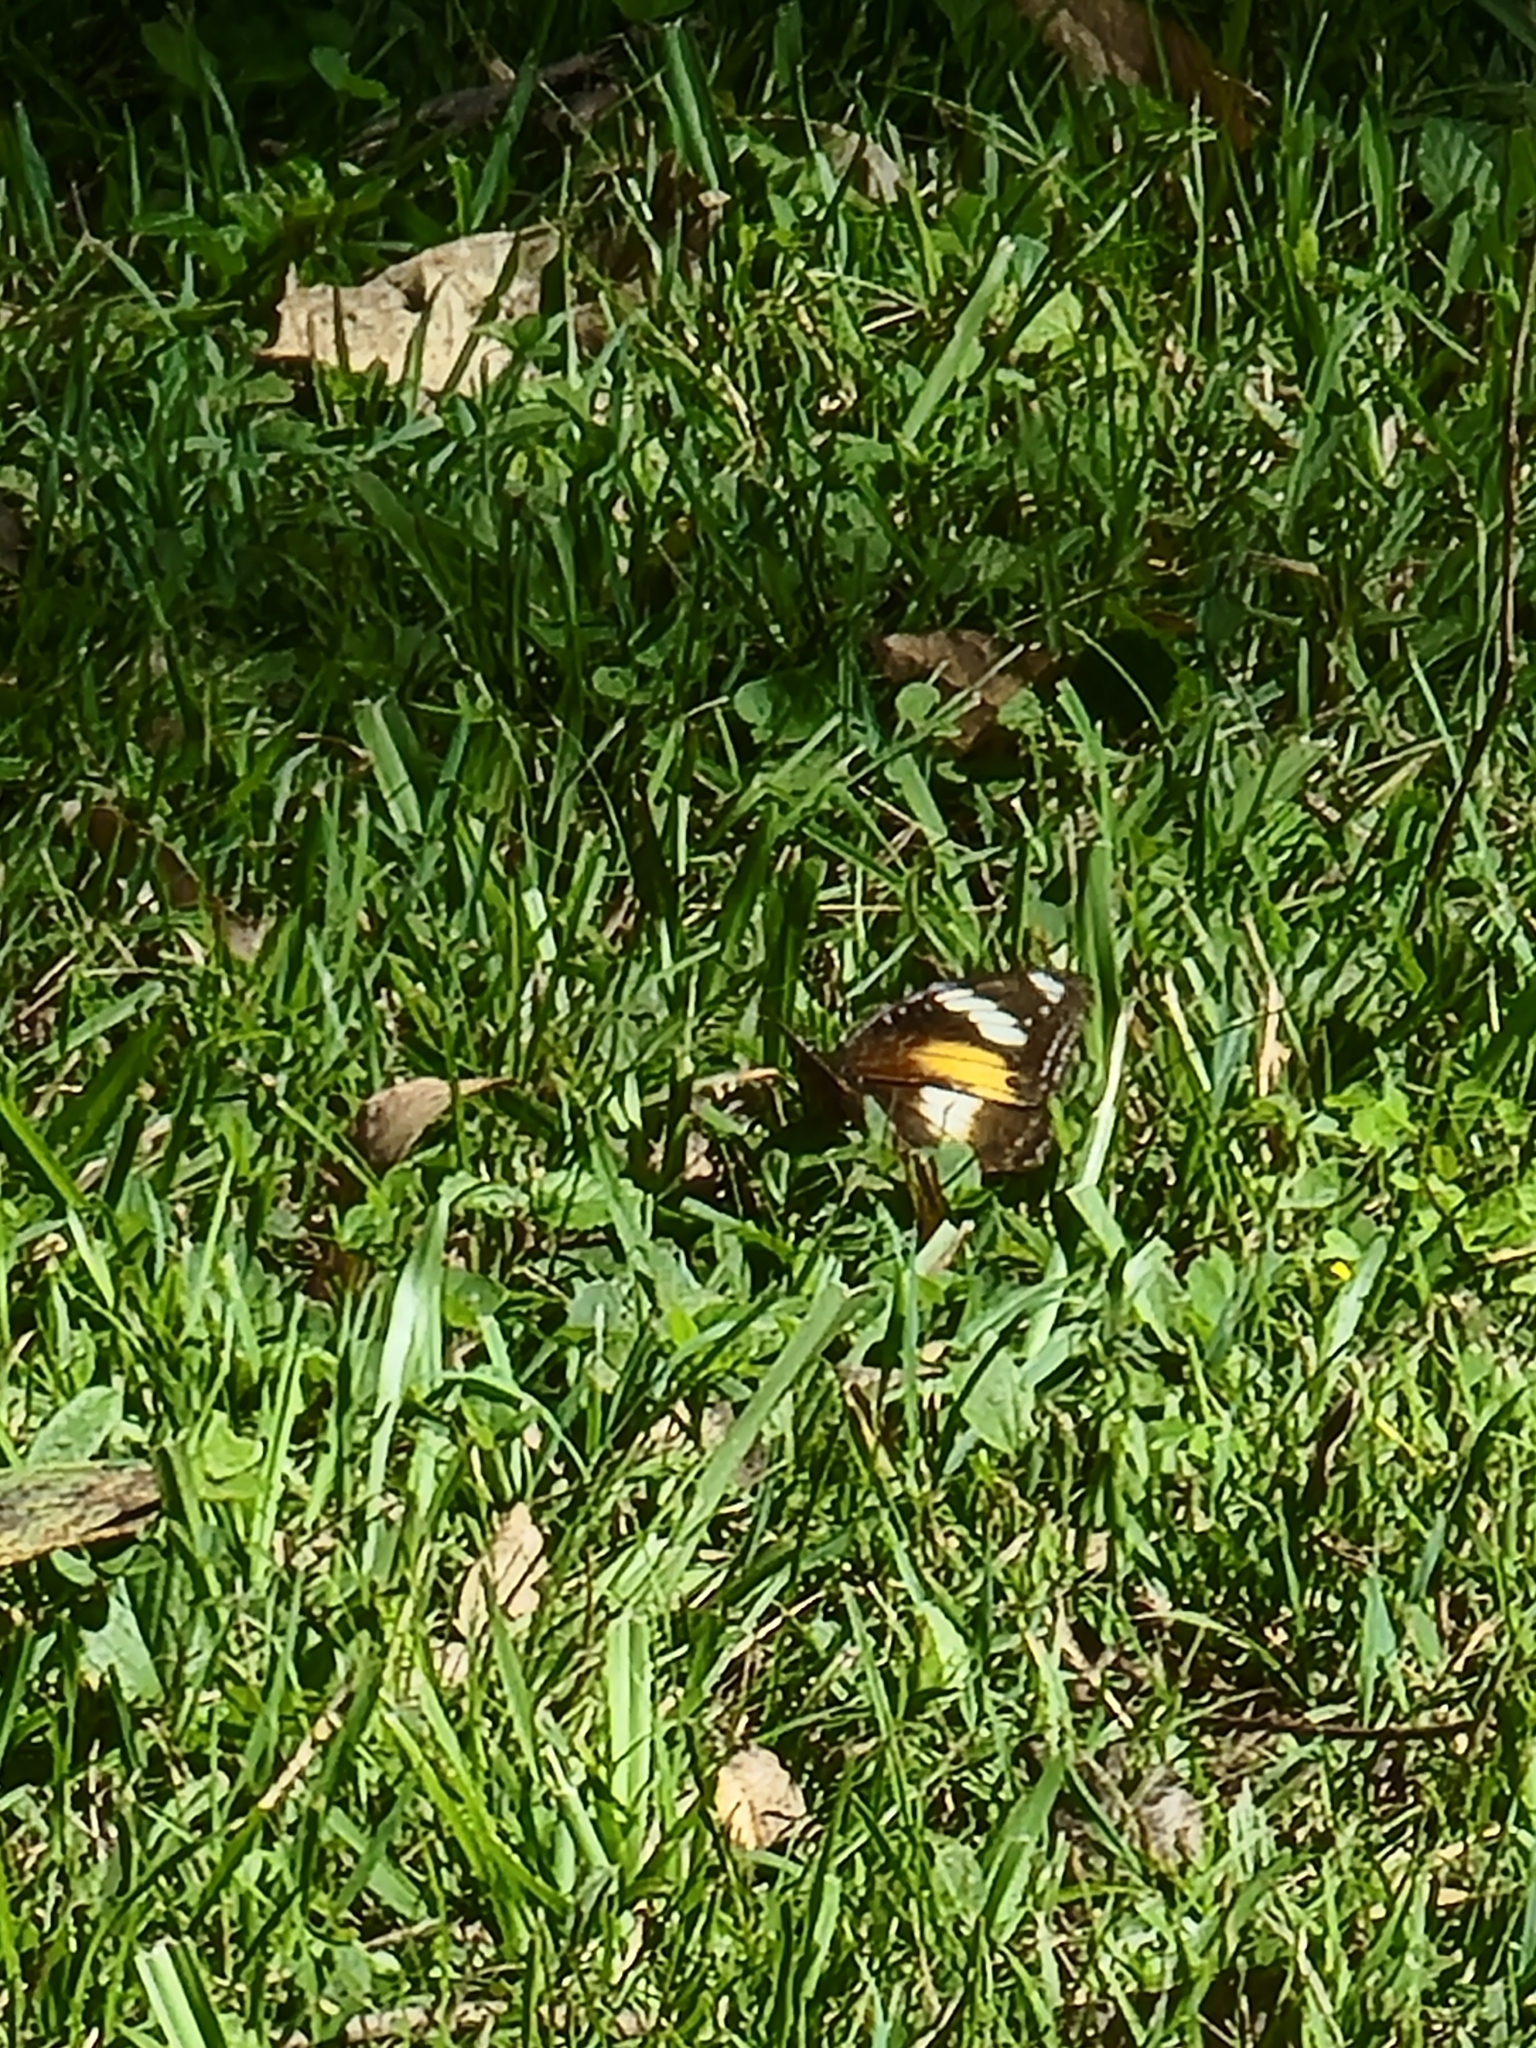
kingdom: Animalia
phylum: Arthropoda
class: Insecta
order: Lepidoptera
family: Nymphalidae
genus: Hypolimnas
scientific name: Hypolimnas bolina
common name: Great eggfly
